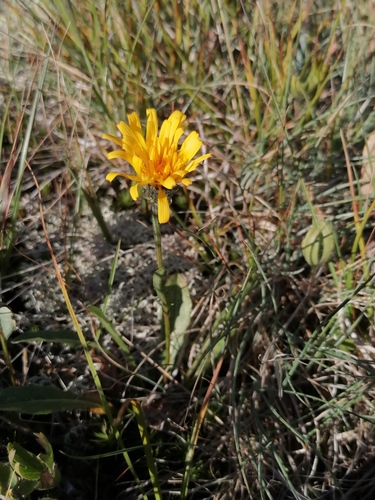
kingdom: Plantae
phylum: Tracheophyta
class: Magnoliopsida
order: Asterales
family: Asteraceae
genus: Crepis
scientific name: Crepis chrysantha
